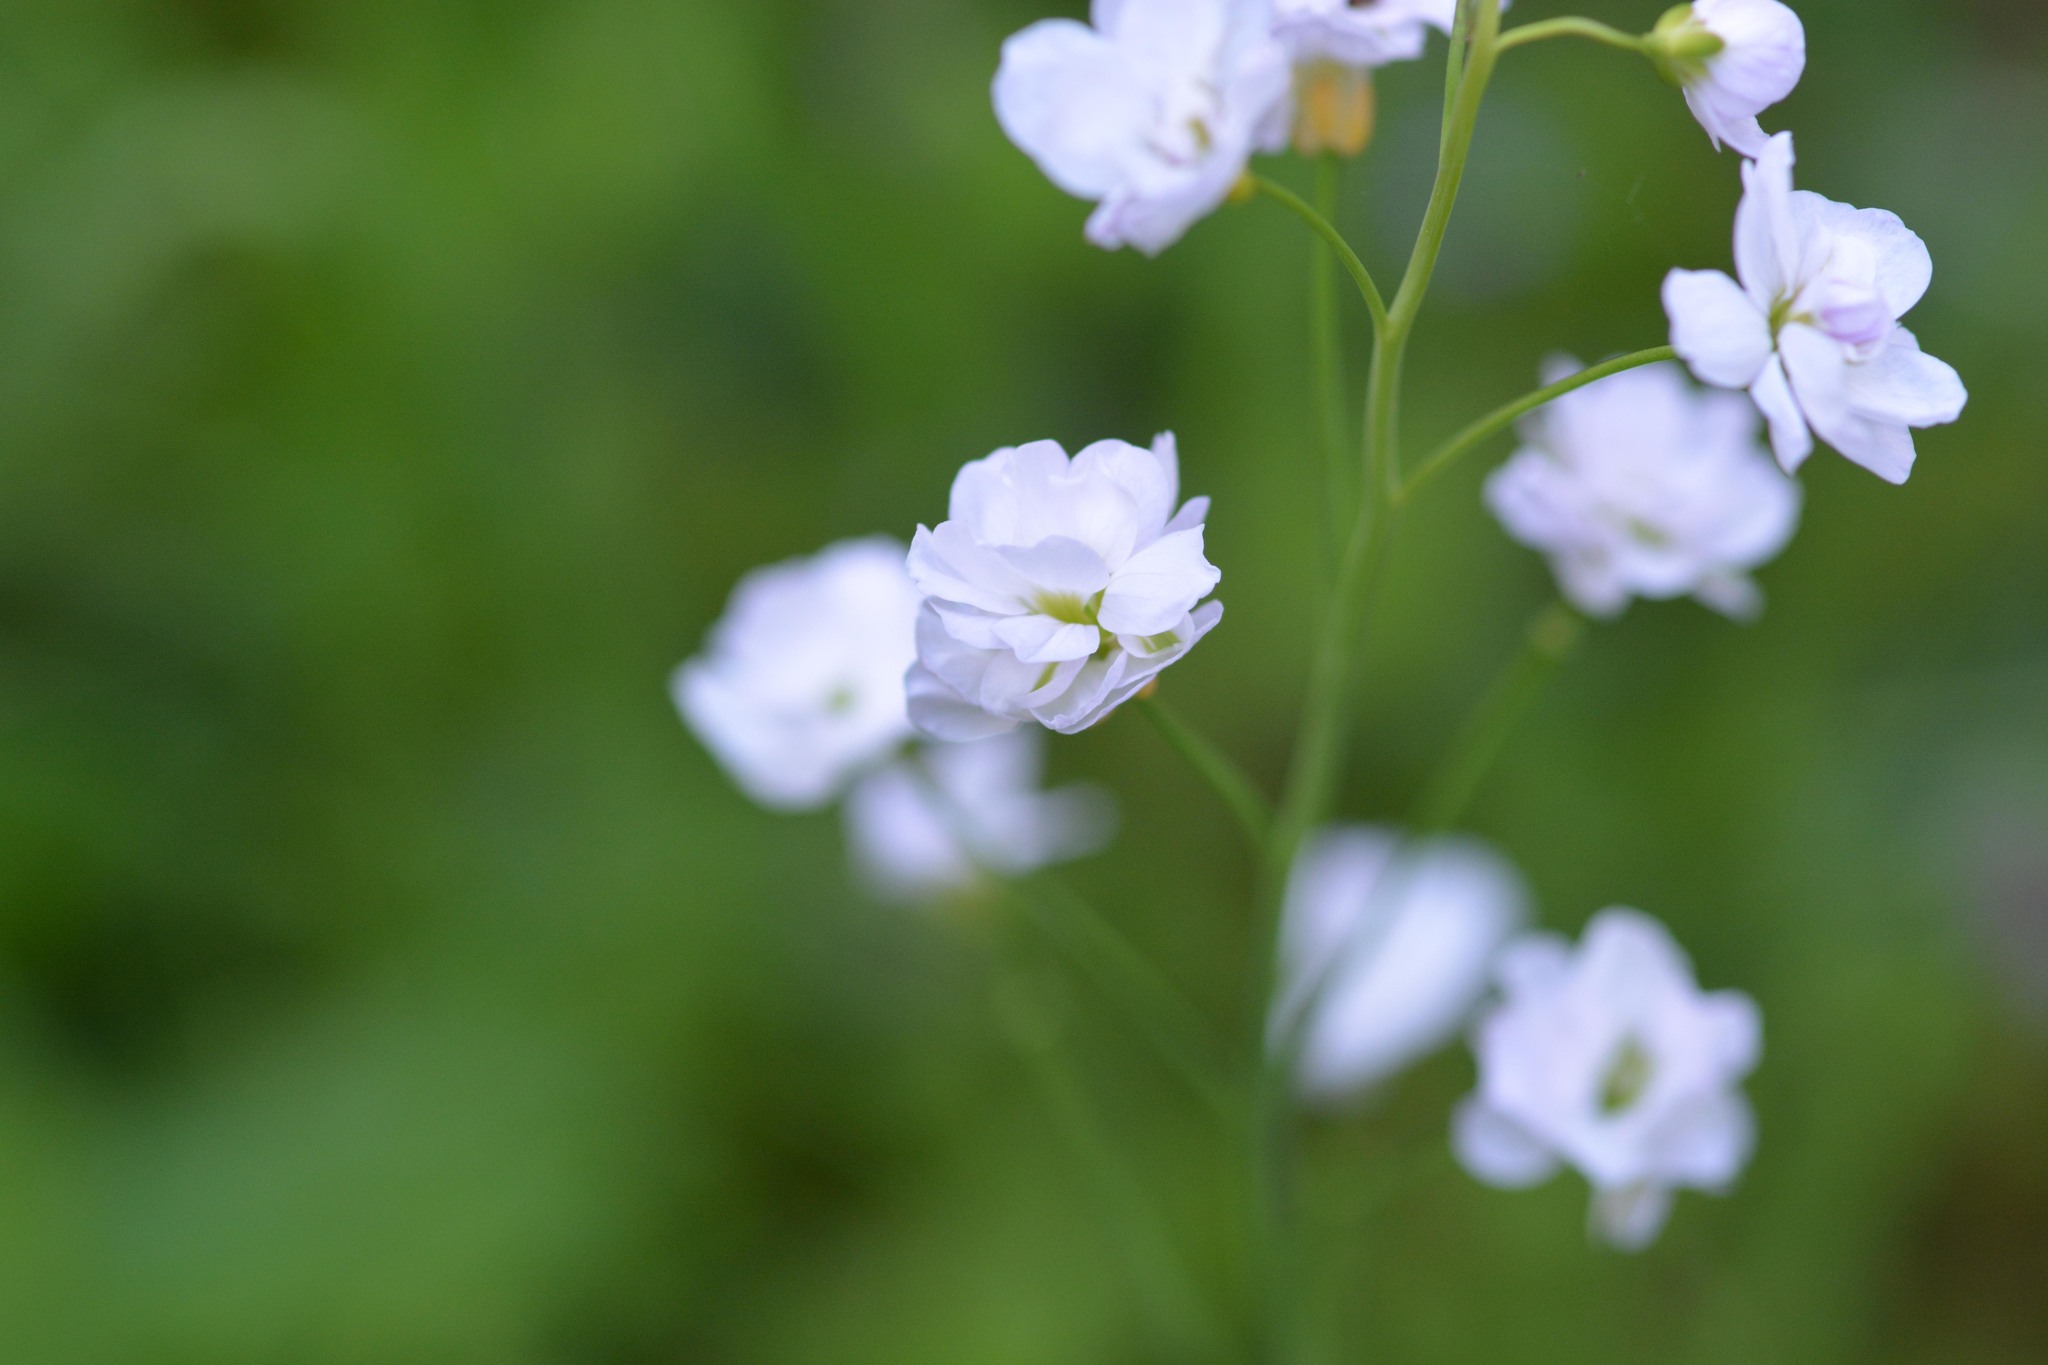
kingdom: Plantae
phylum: Tracheophyta
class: Magnoliopsida
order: Brassicales
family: Brassicaceae
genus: Cardamine
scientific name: Cardamine pratensis
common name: Cuckoo flower
